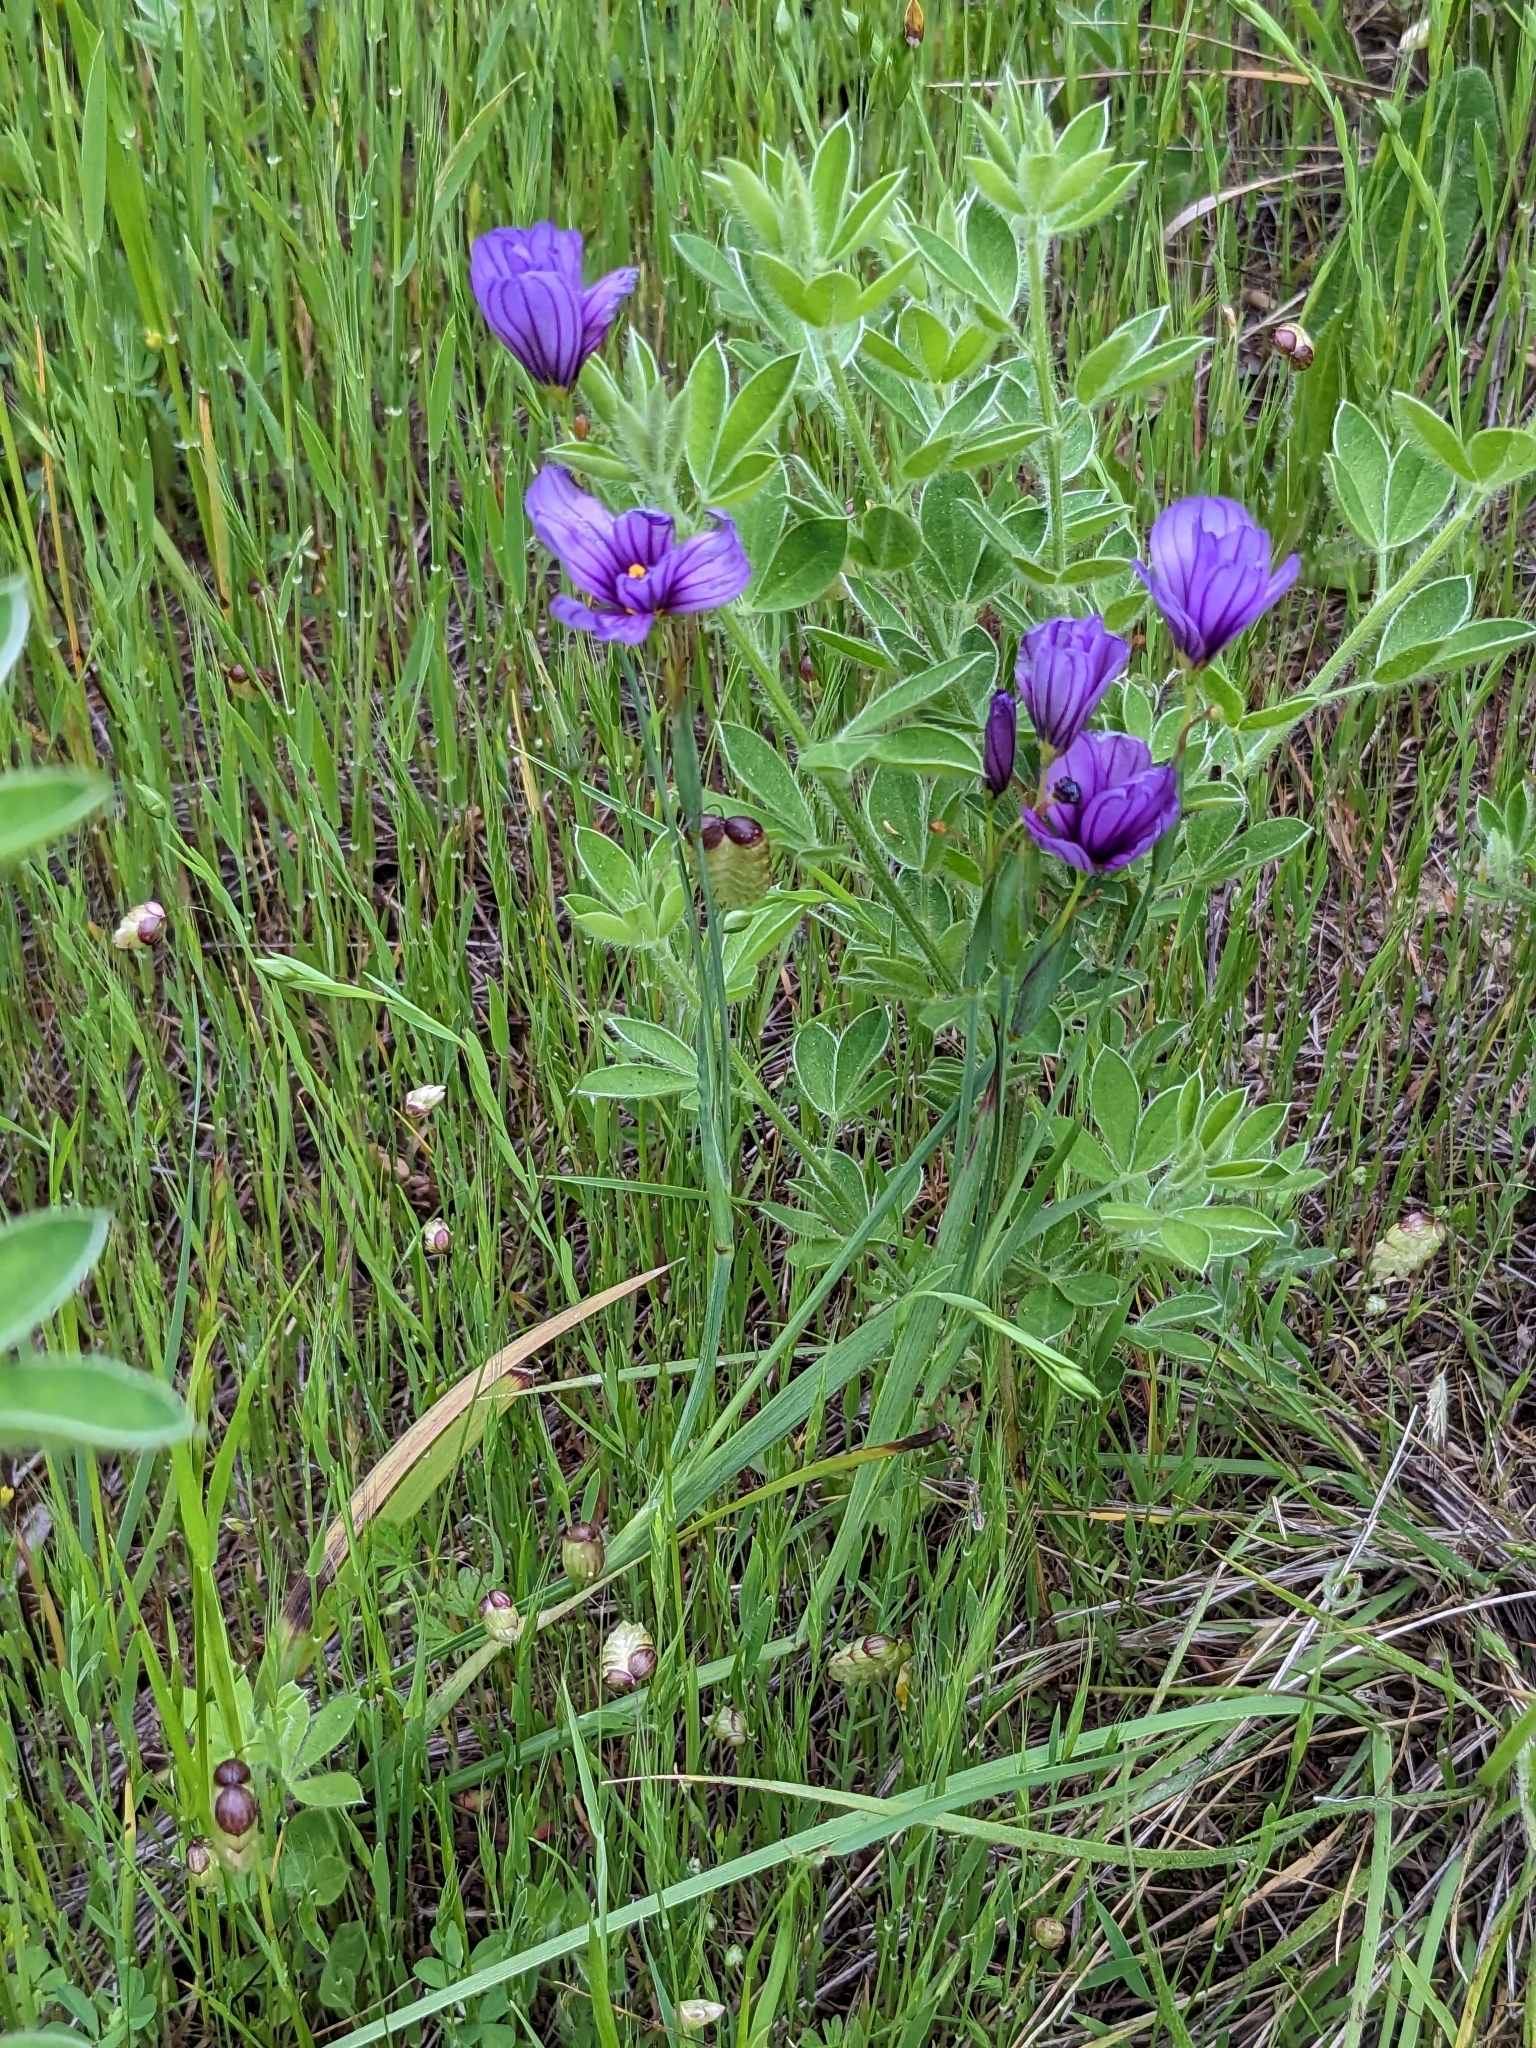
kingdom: Plantae
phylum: Tracheophyta
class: Liliopsida
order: Asparagales
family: Iridaceae
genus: Sisyrinchium
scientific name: Sisyrinchium bellum
